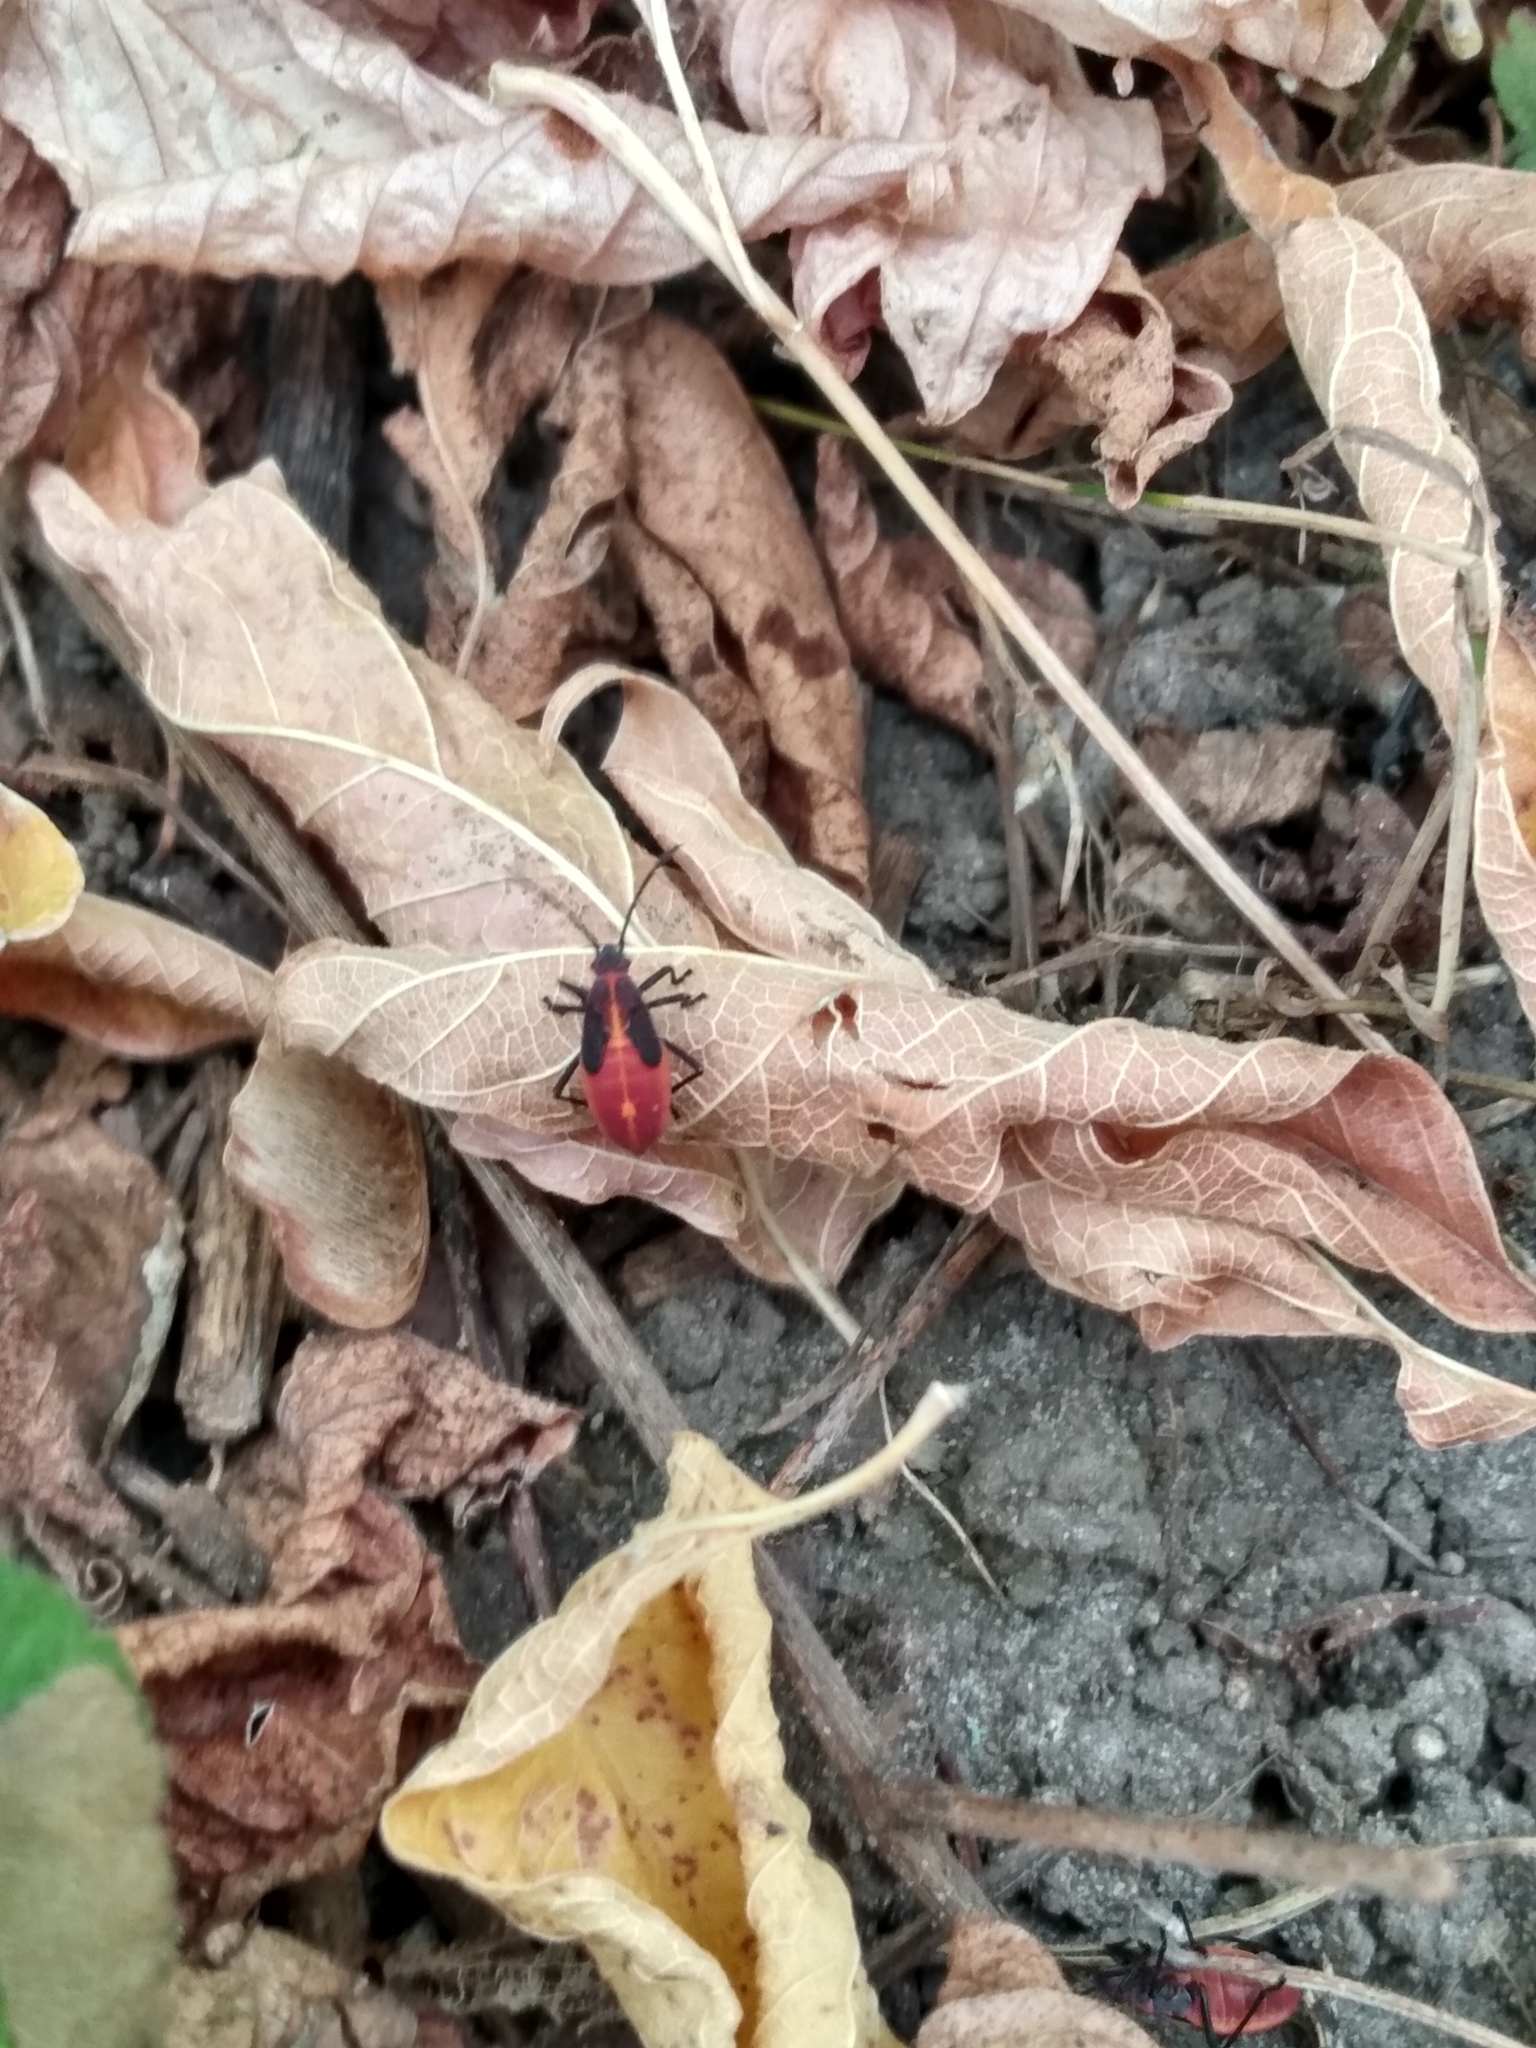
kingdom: Animalia
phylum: Arthropoda
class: Insecta
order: Hemiptera
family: Rhopalidae
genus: Boisea
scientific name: Boisea trivittata
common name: Boxelder bug
